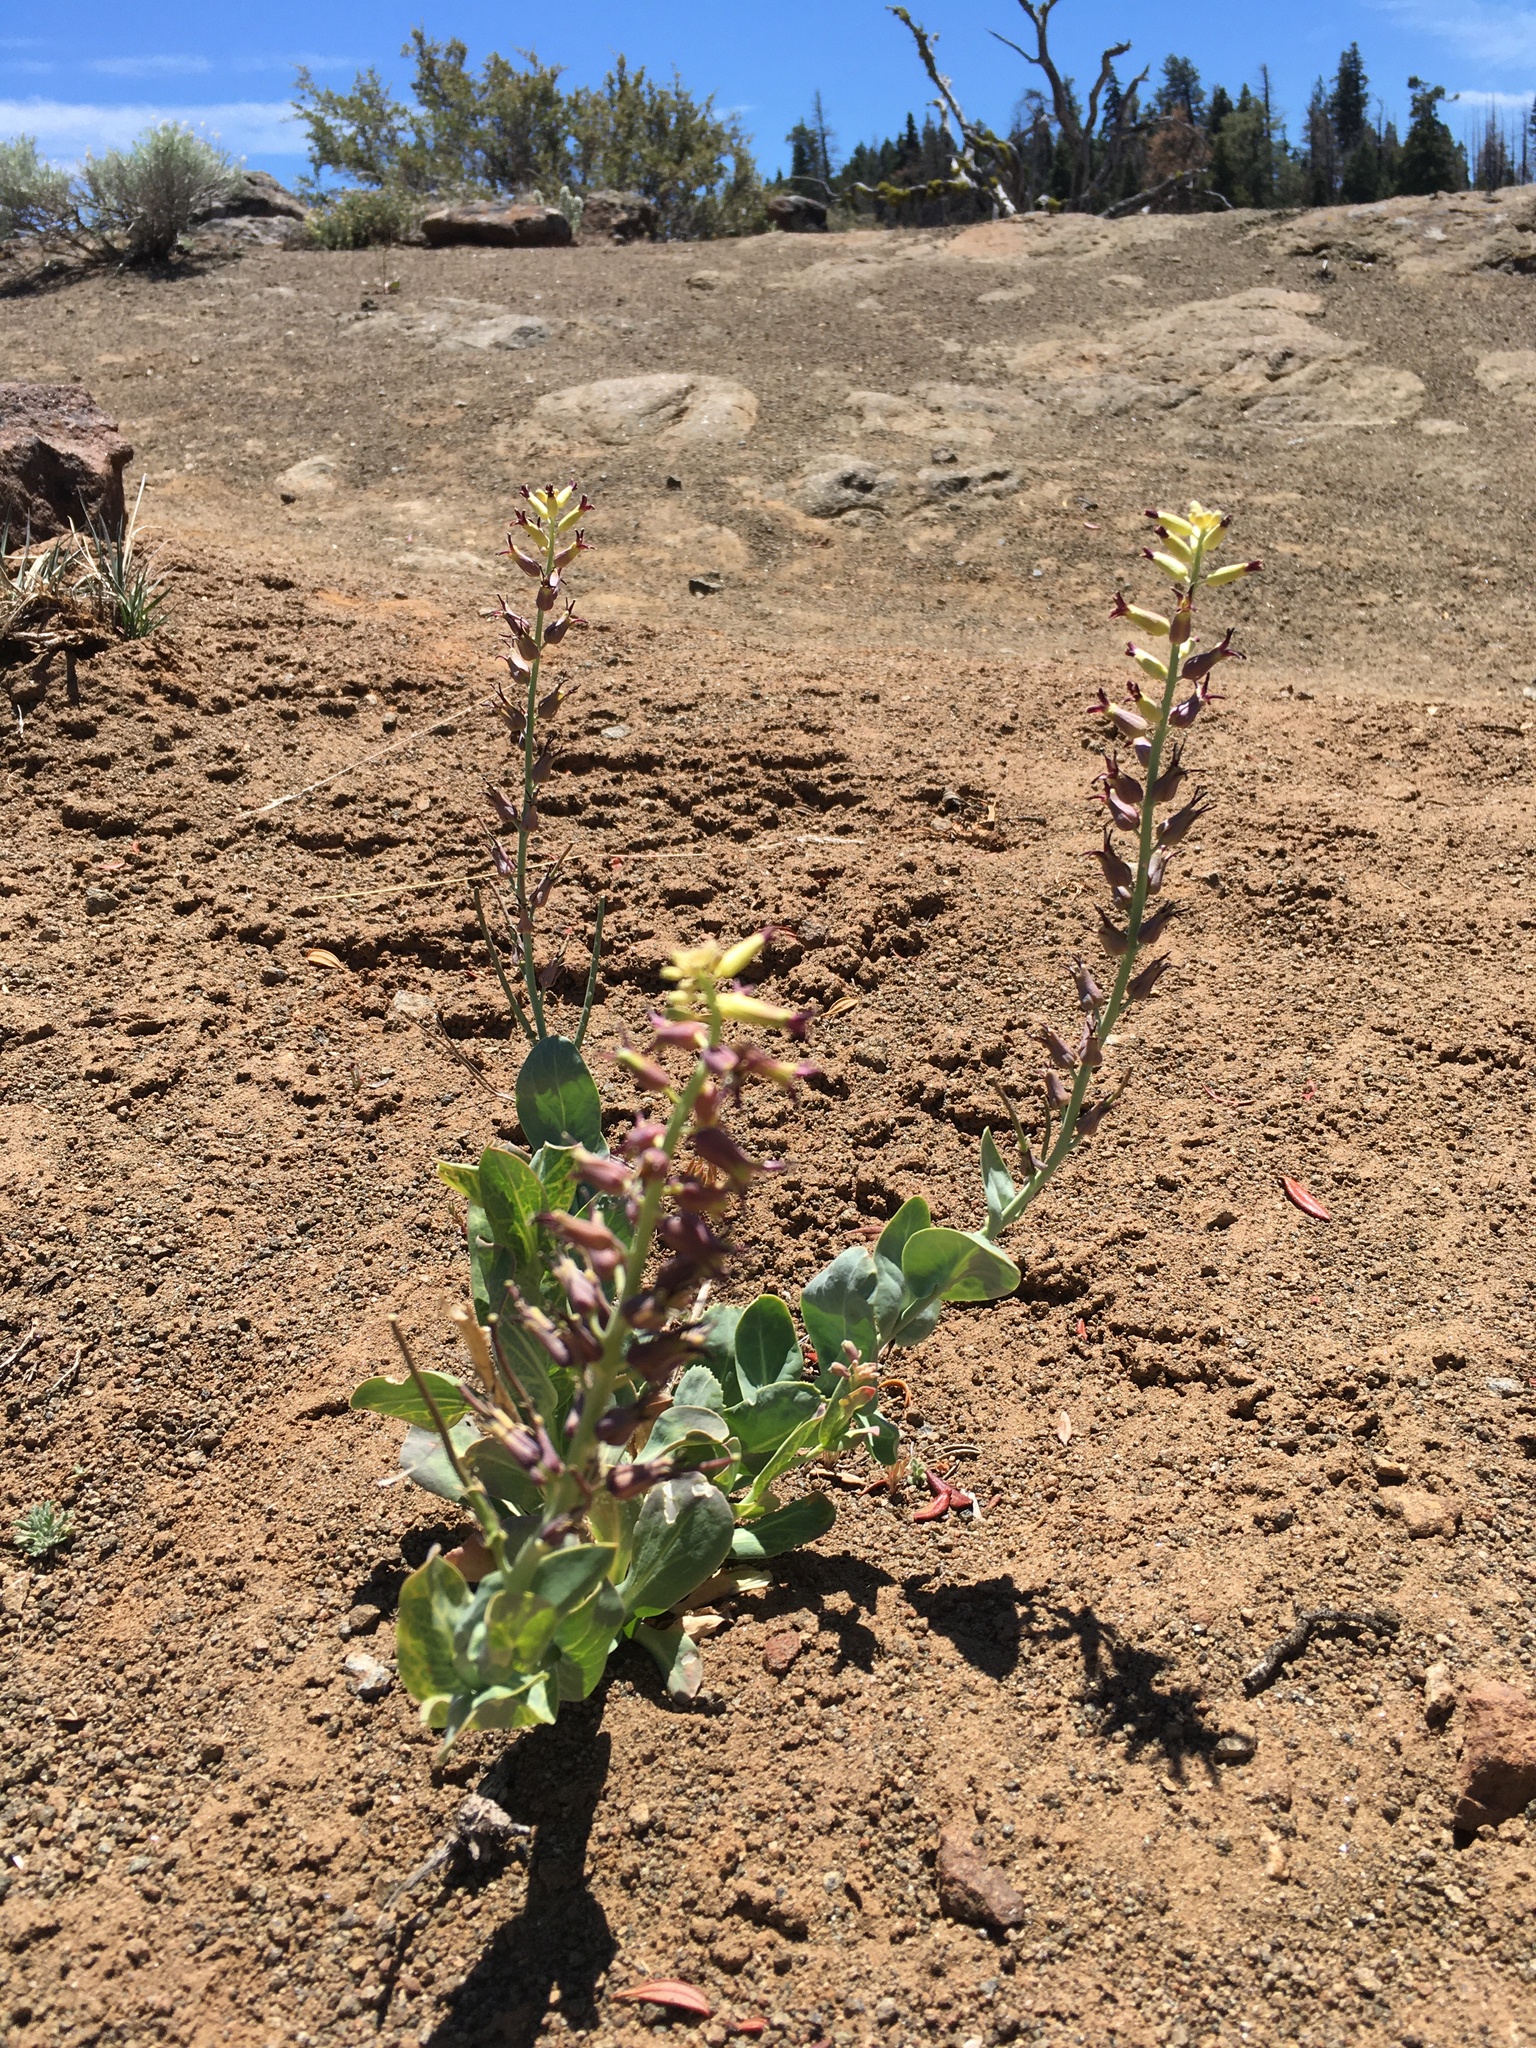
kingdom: Plantae
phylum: Tracheophyta
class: Magnoliopsida
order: Brassicales
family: Brassicaceae
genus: Streptanthus
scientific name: Streptanthus cordatus
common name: Heart-leaf jewel-flower
